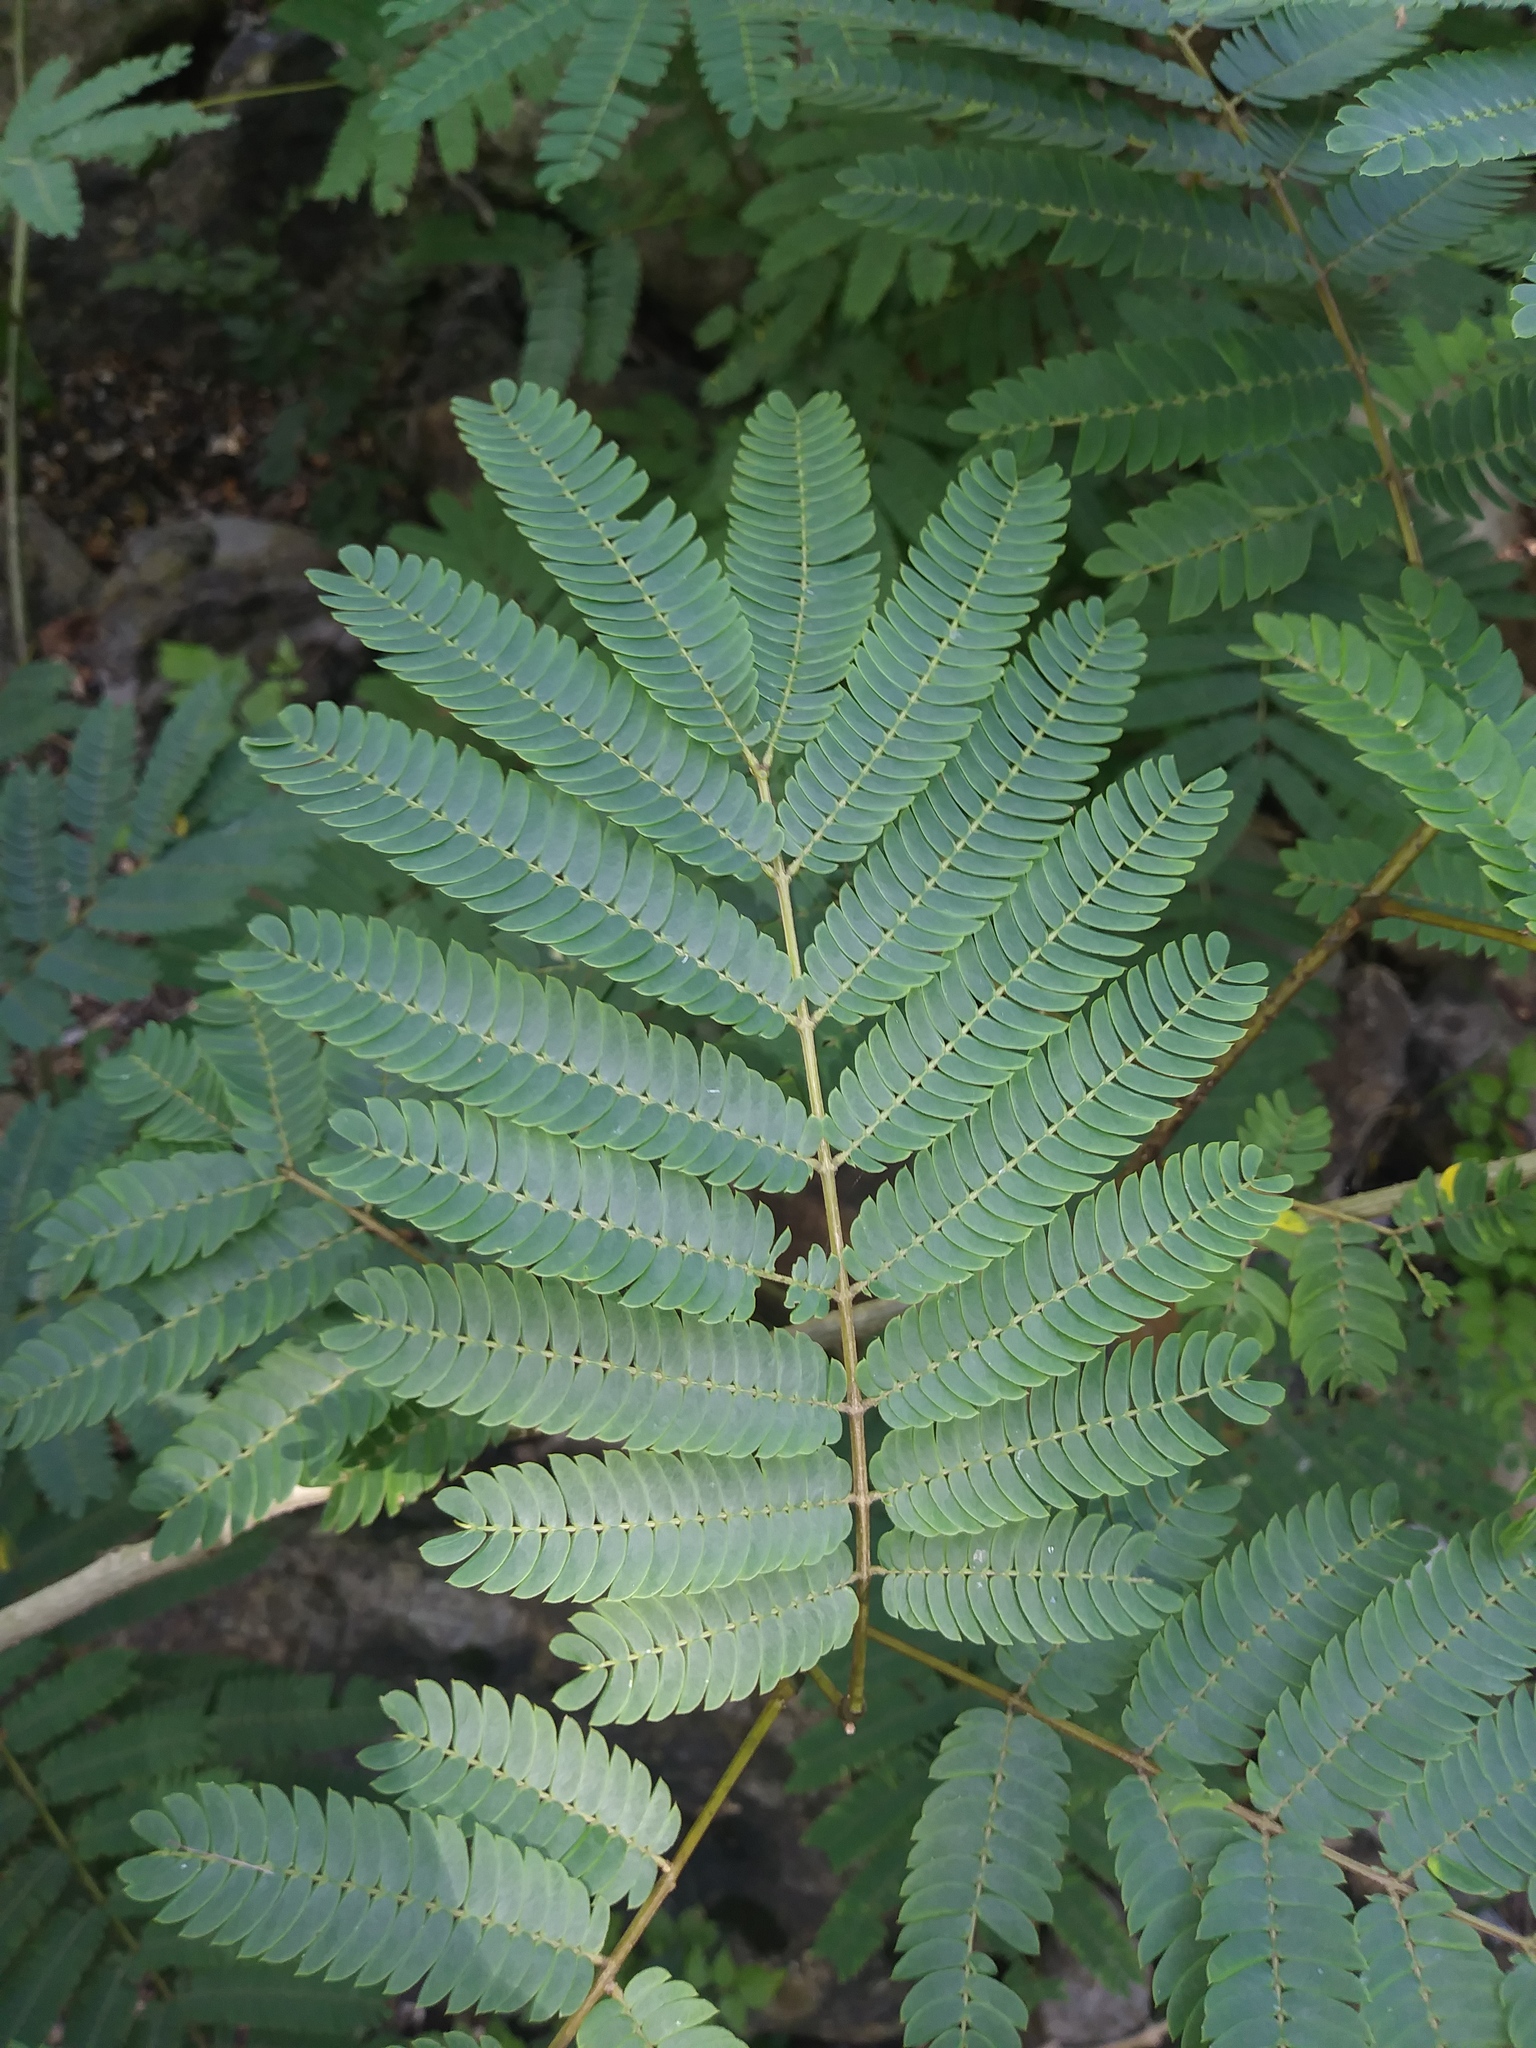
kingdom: Plantae
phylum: Tracheophyta
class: Magnoliopsida
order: Fabales
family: Fabaceae
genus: Albizia
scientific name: Albizia julibrissin
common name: Silktree
